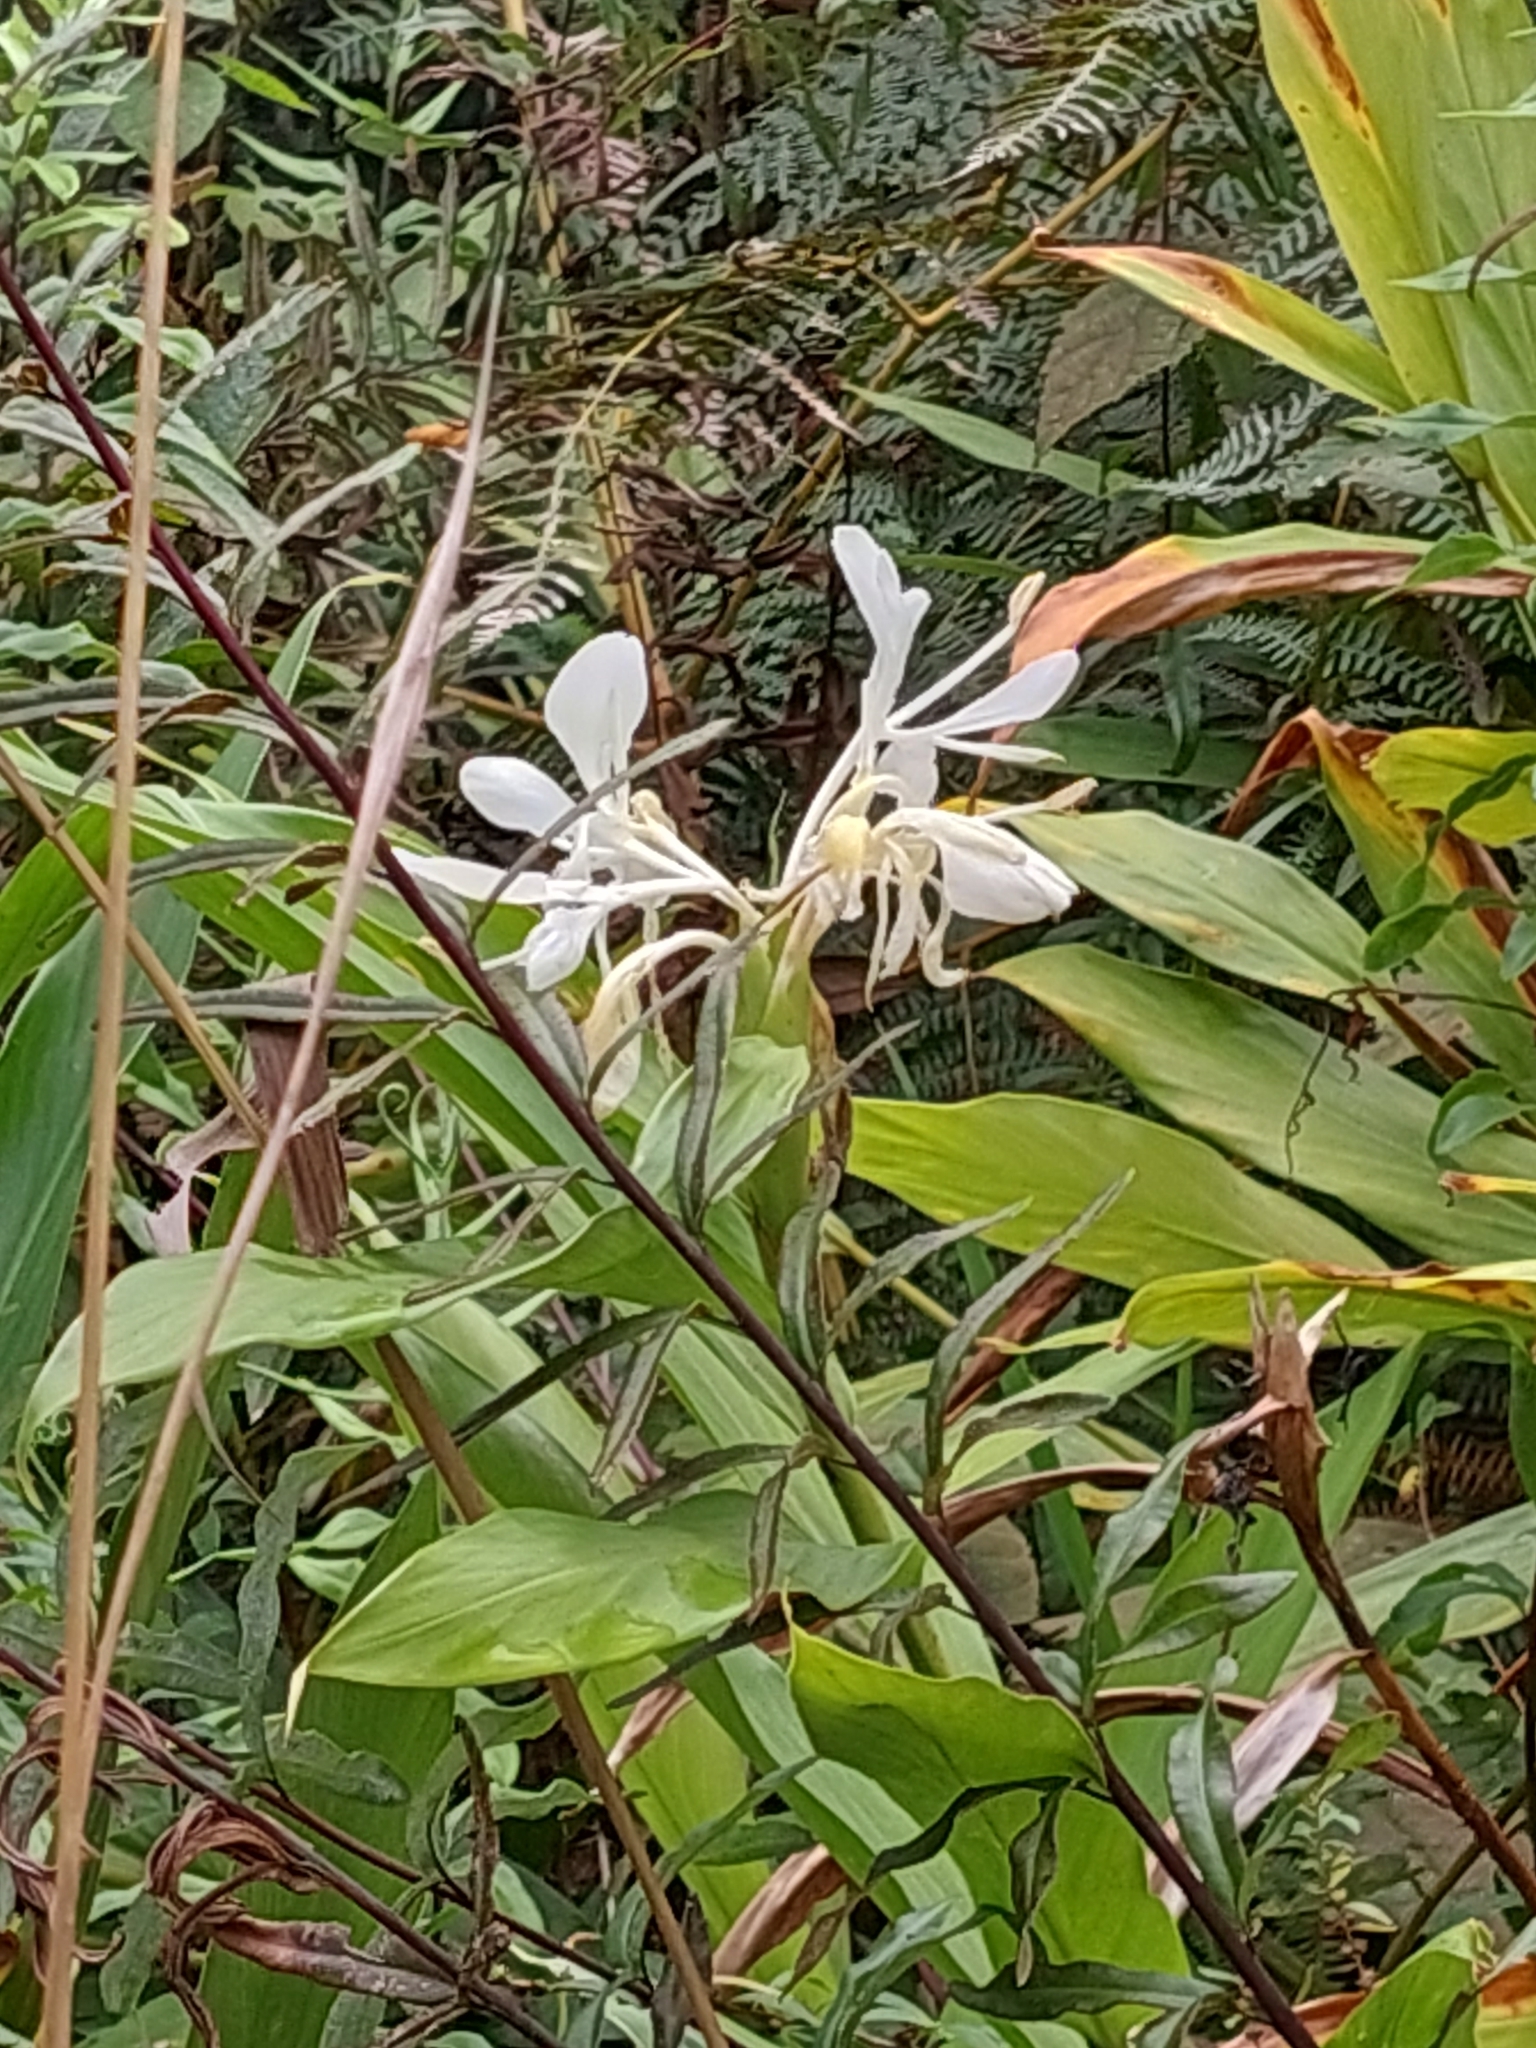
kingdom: Plantae
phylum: Tracheophyta
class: Liliopsida
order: Zingiberales
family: Zingiberaceae
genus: Hedychium
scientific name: Hedychium coronarium
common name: White garland-lily
